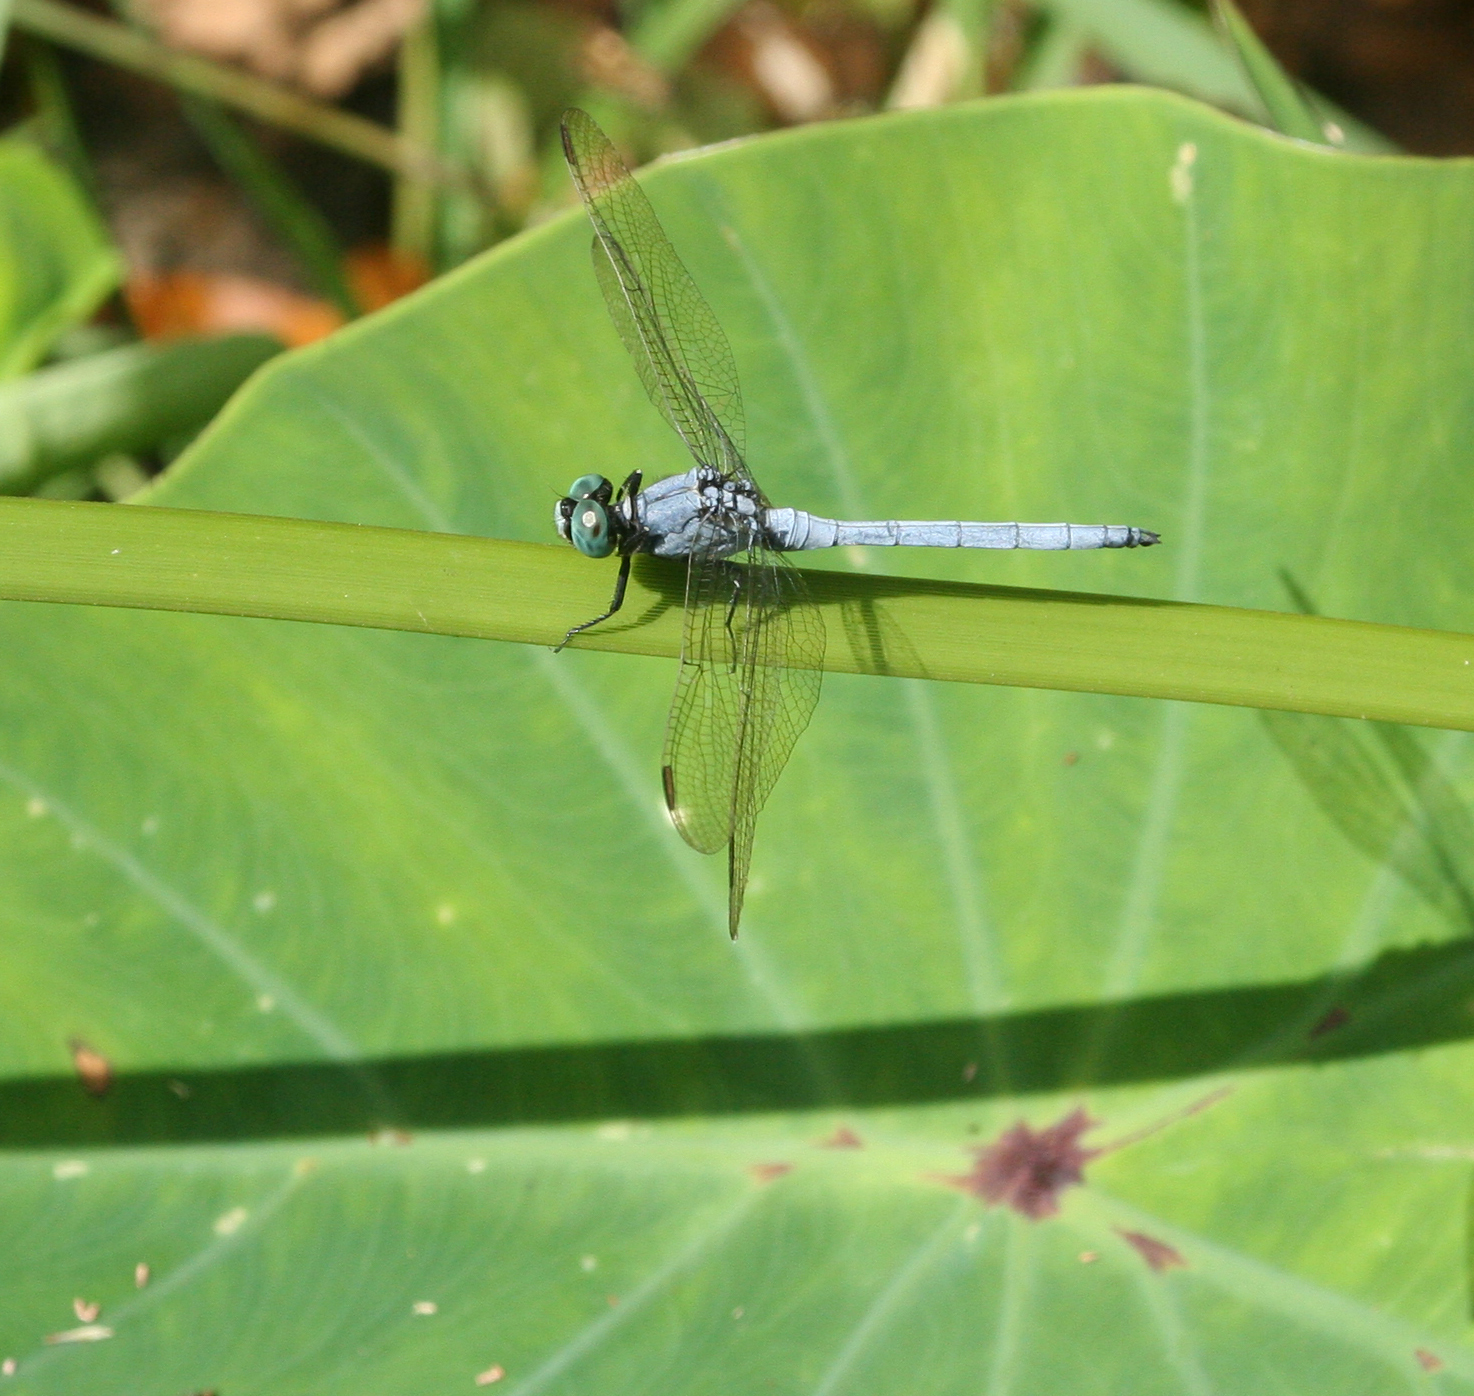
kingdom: Animalia
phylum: Arthropoda
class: Insecta
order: Odonata
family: Libellulidae
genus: Orthetrum
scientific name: Orthetrum luzonicum
